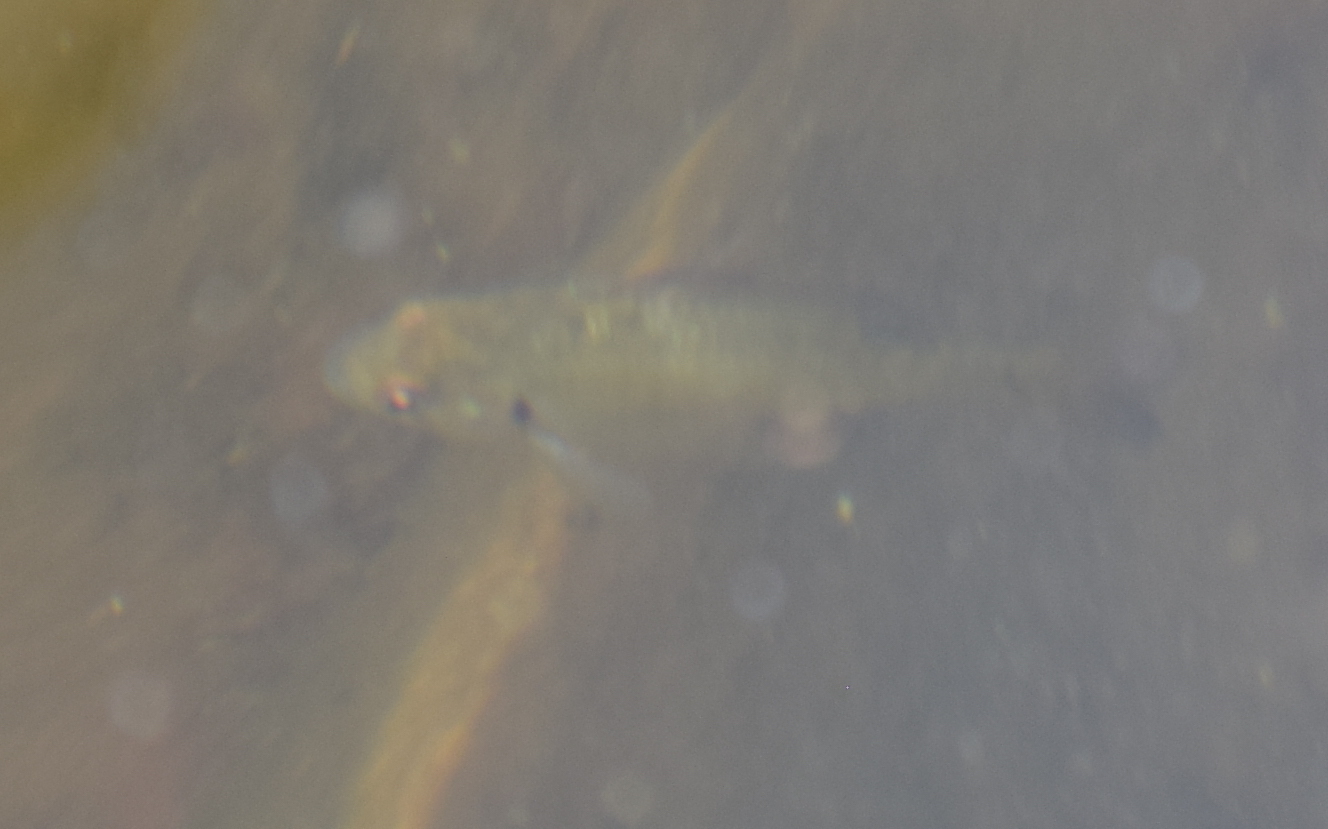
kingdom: Animalia
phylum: Chordata
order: Perciformes
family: Centrarchidae
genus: Lepomis
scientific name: Lepomis macrochirus
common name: Bluegill
